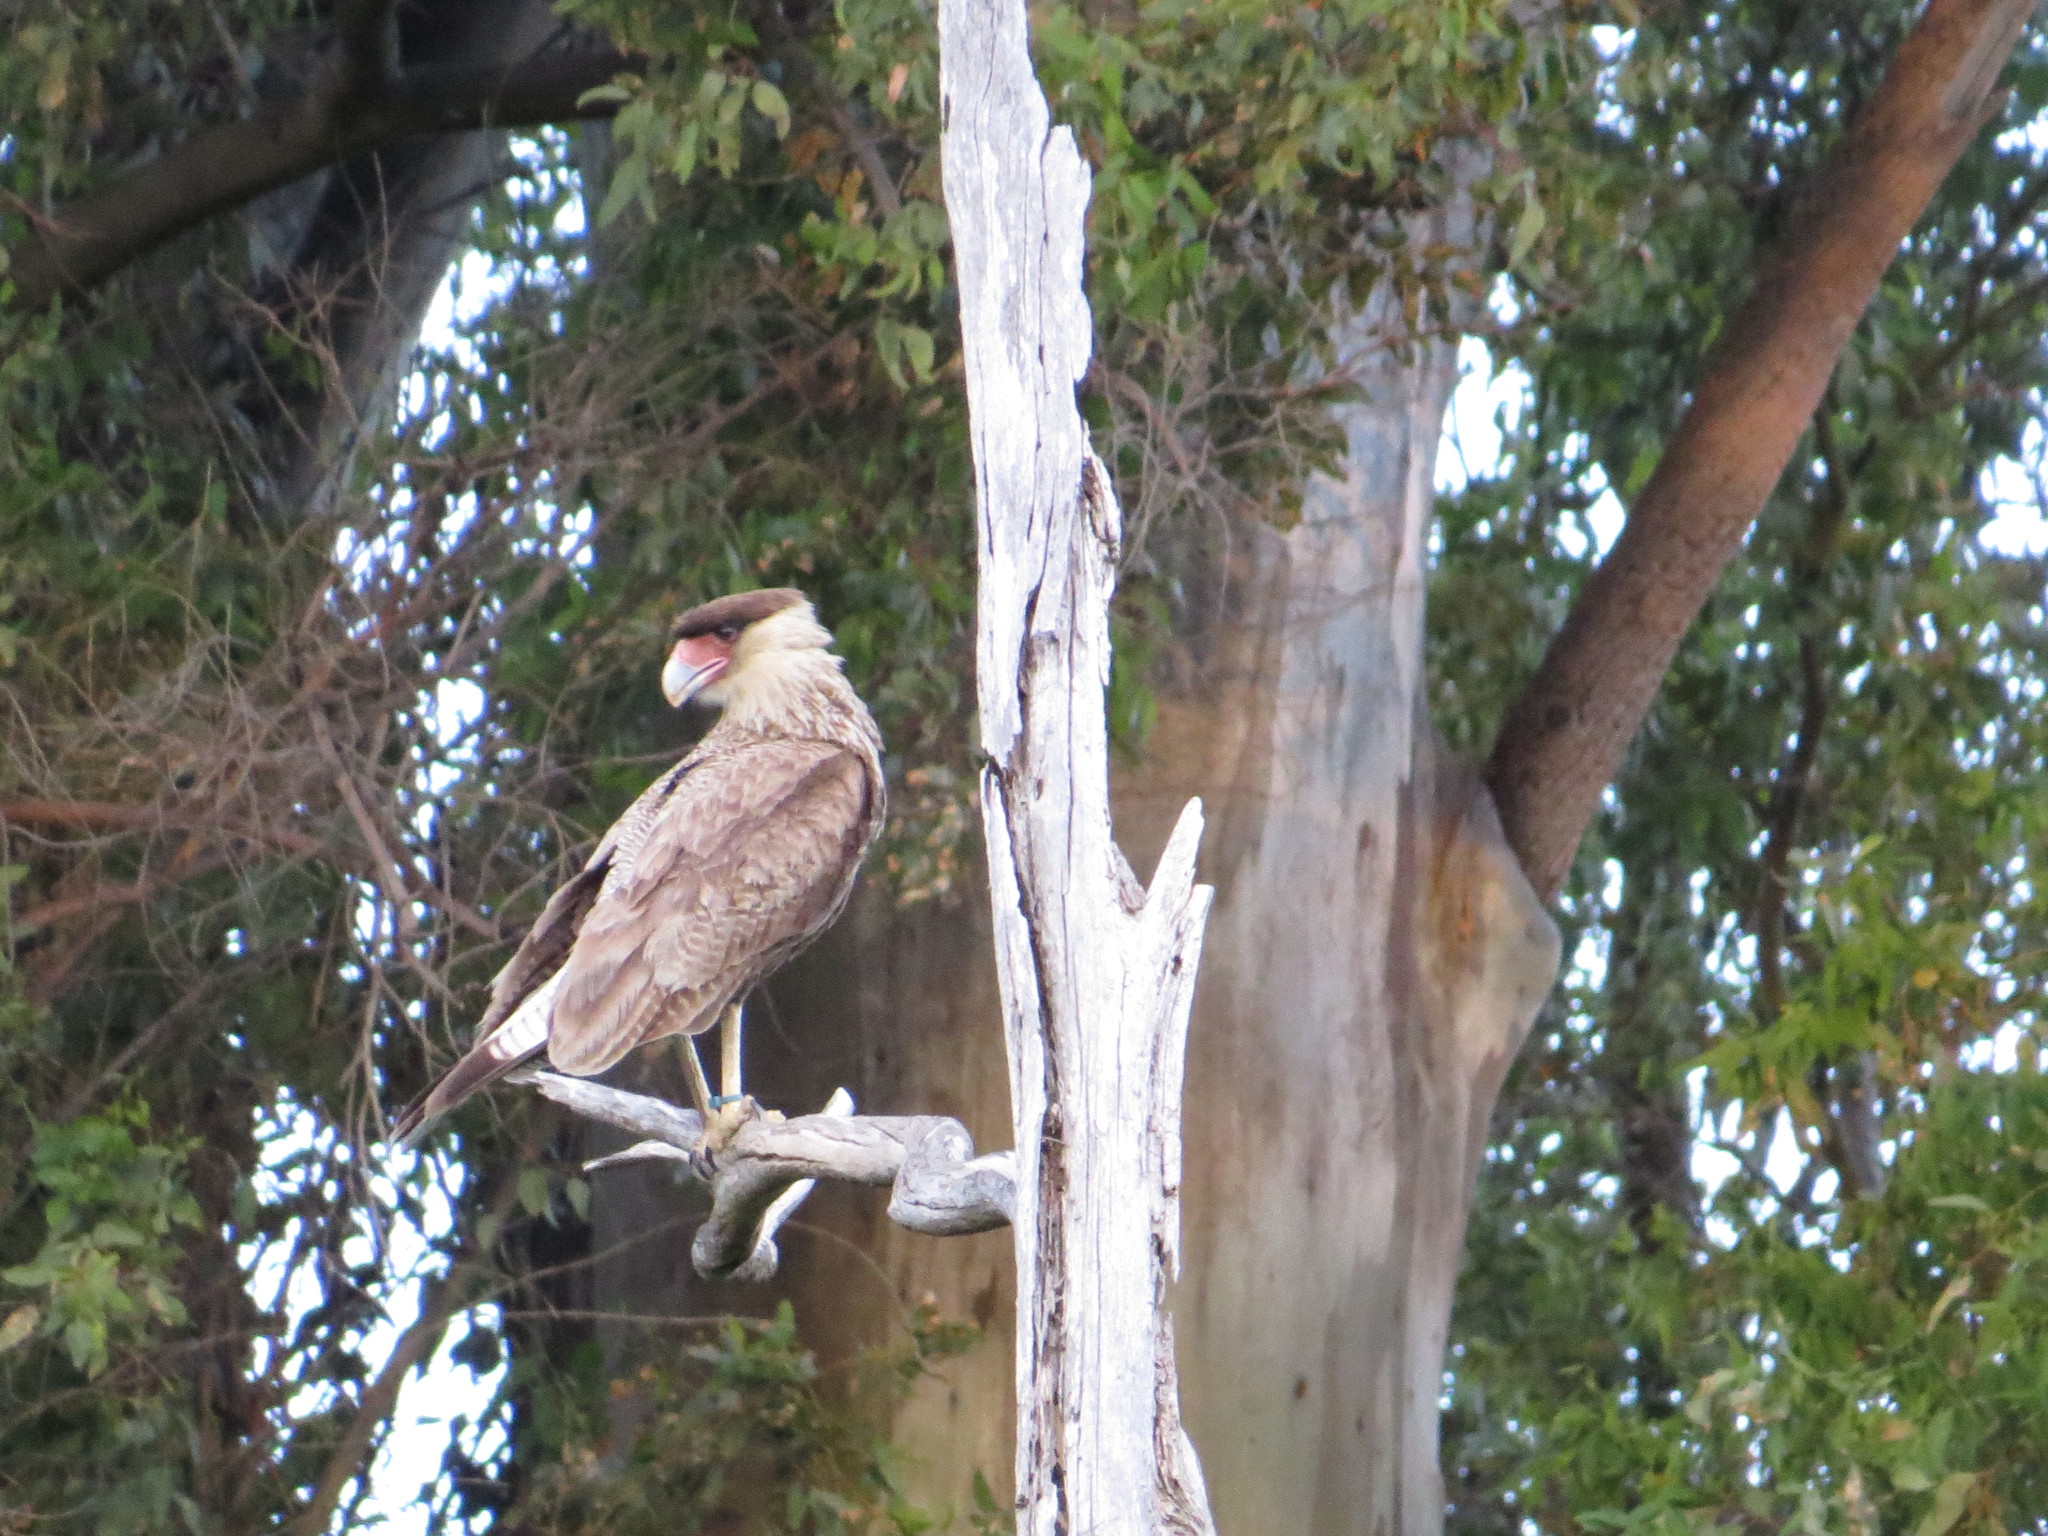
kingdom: Animalia
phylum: Chordata
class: Aves
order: Falconiformes
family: Falconidae
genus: Caracara
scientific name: Caracara plancus
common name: Southern caracara
